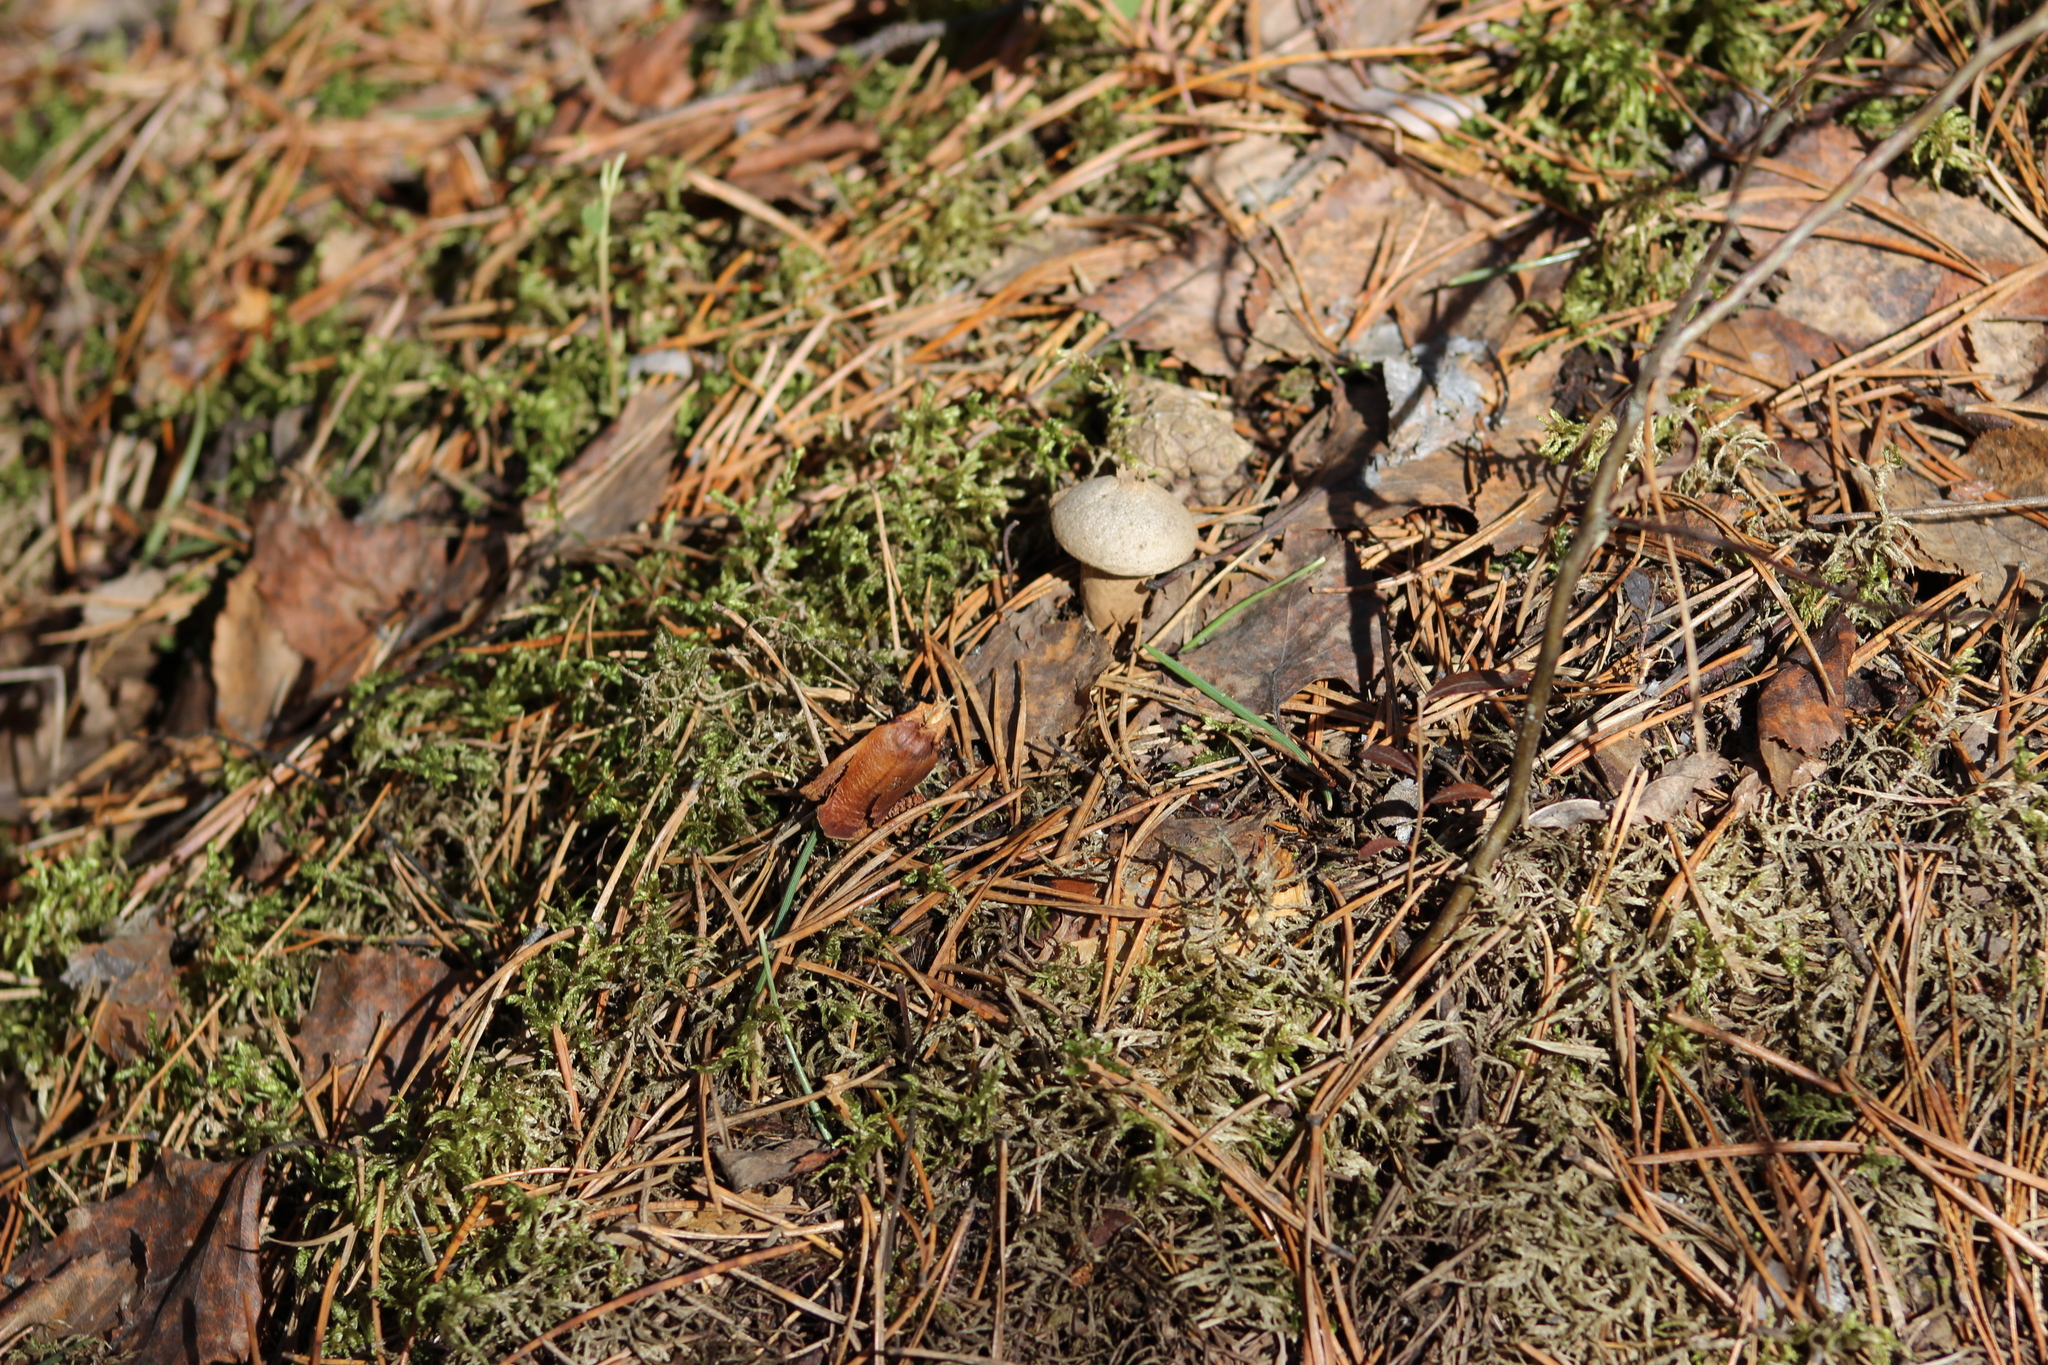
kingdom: Fungi
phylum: Basidiomycota
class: Agaricomycetes
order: Agaricales
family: Lycoperdaceae
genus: Lycoperdon
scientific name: Lycoperdon perlatum
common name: Common puffball
